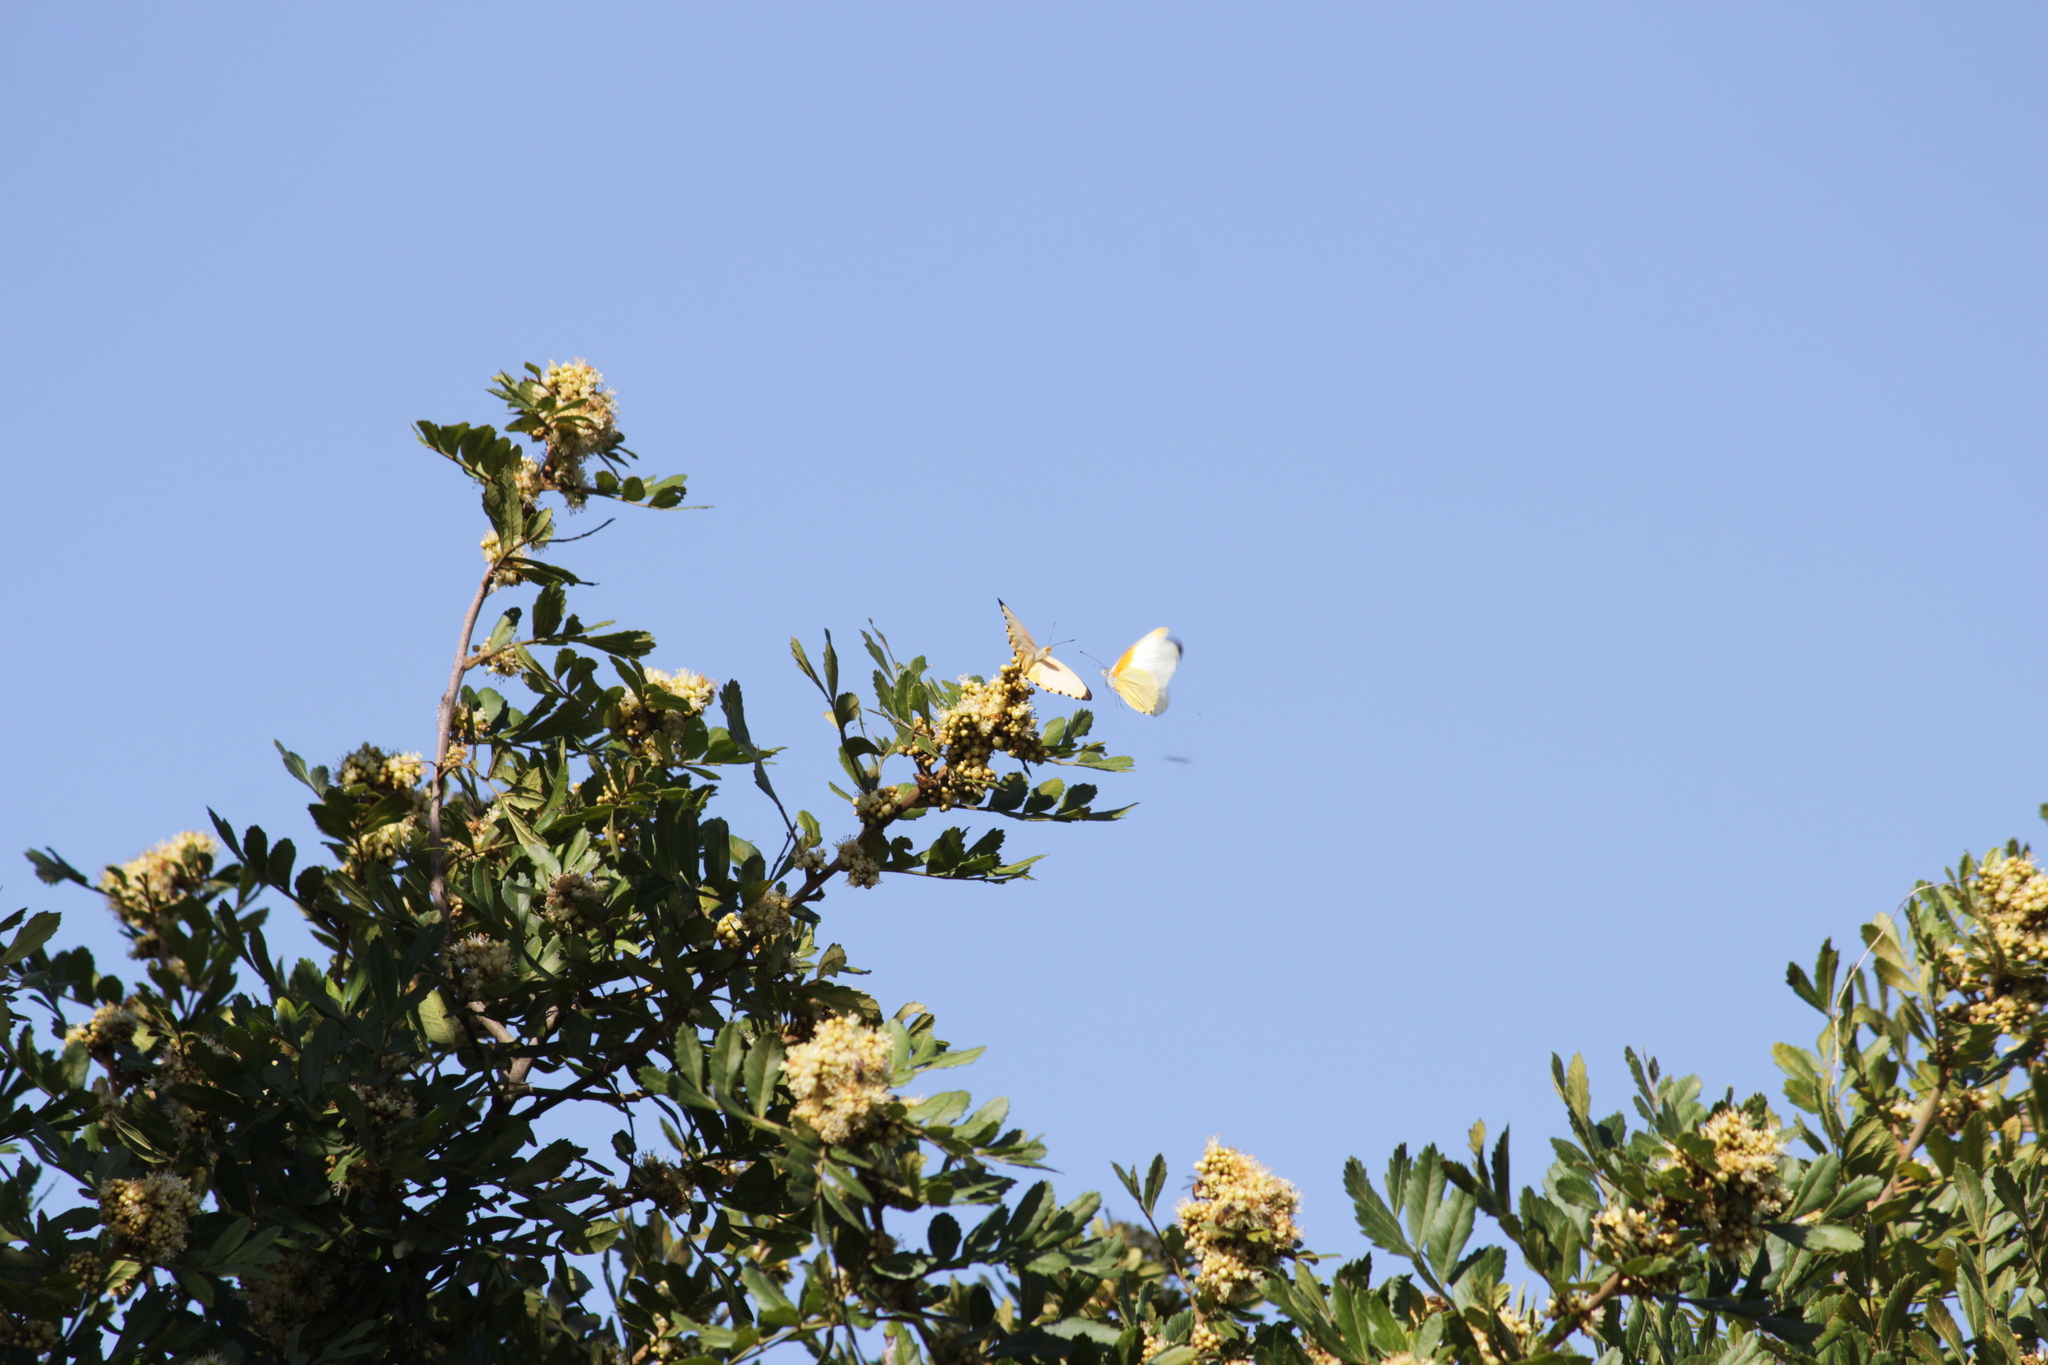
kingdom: Plantae
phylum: Tracheophyta
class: Magnoliopsida
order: Sapindales
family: Sapindaceae
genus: Hippobromus
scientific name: Hippobromus pauciflorus
